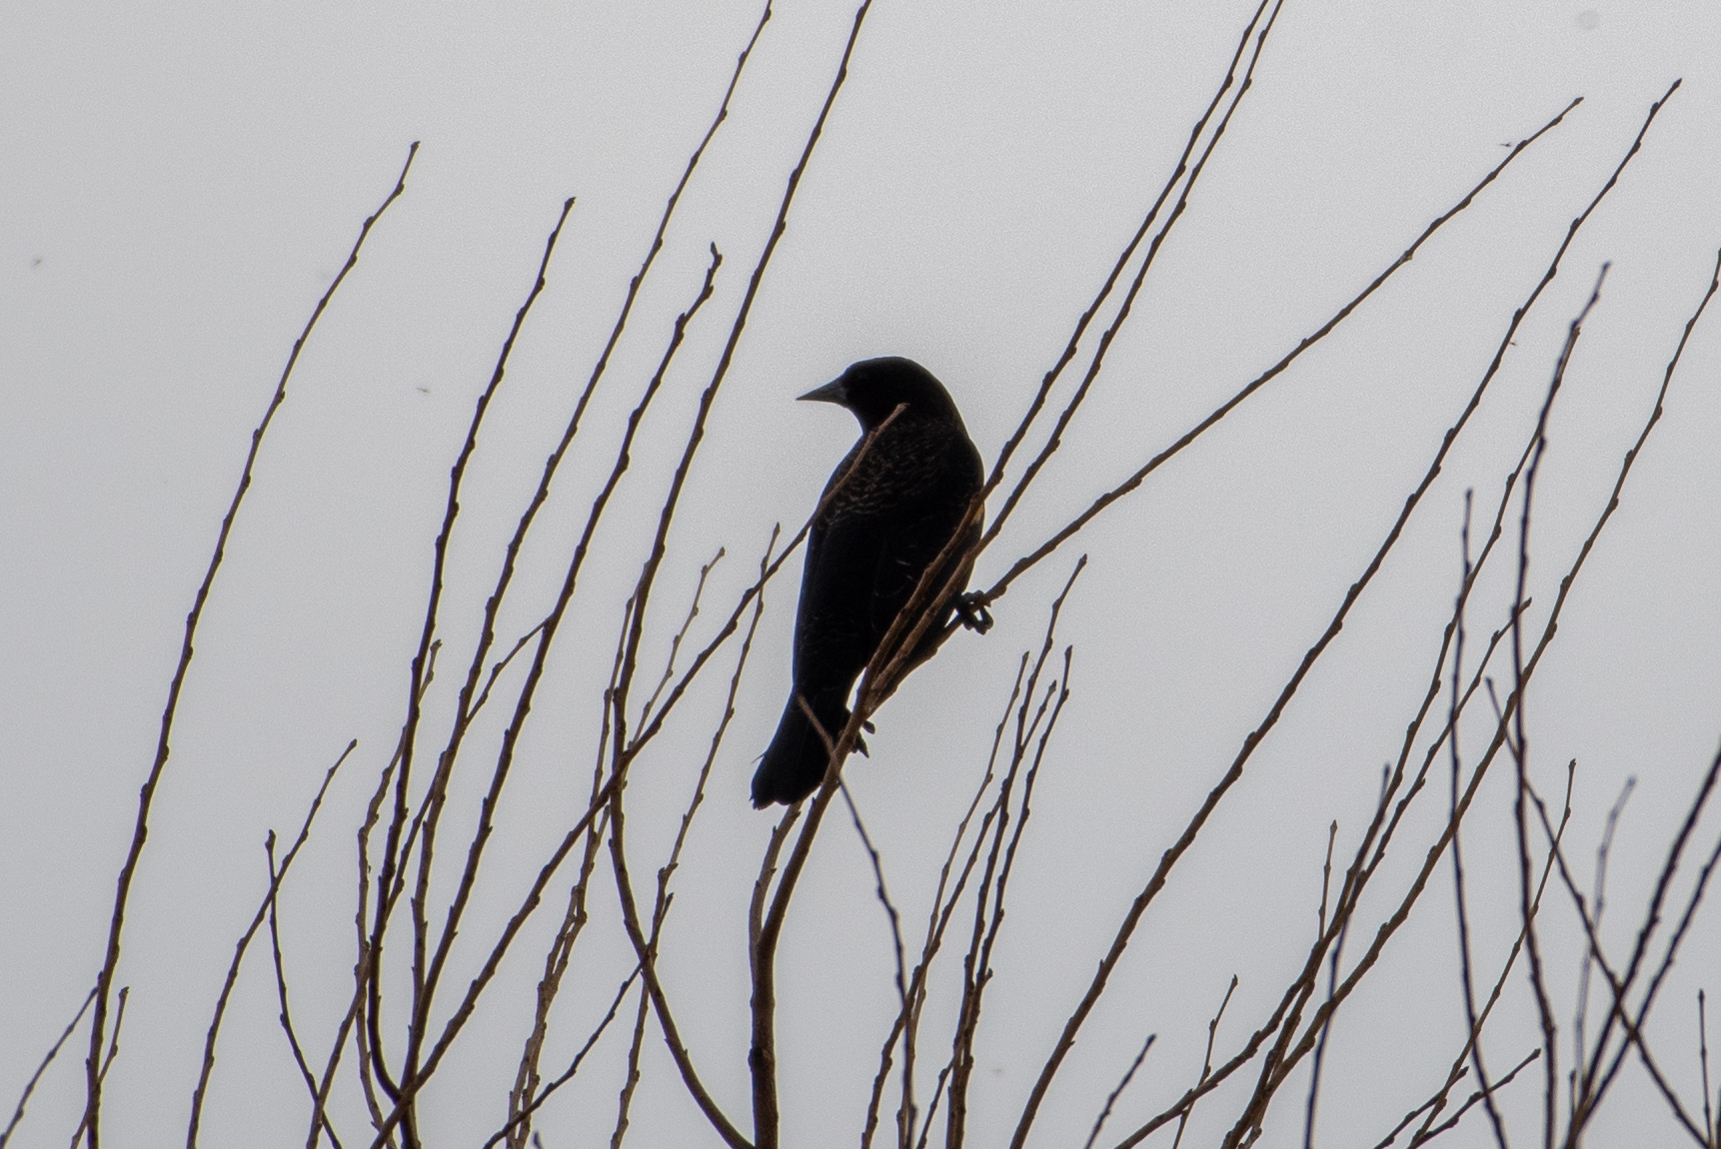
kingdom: Animalia
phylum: Chordata
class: Aves
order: Passeriformes
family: Icteridae
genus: Agelaius
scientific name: Agelaius phoeniceus
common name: Red-winged blackbird
